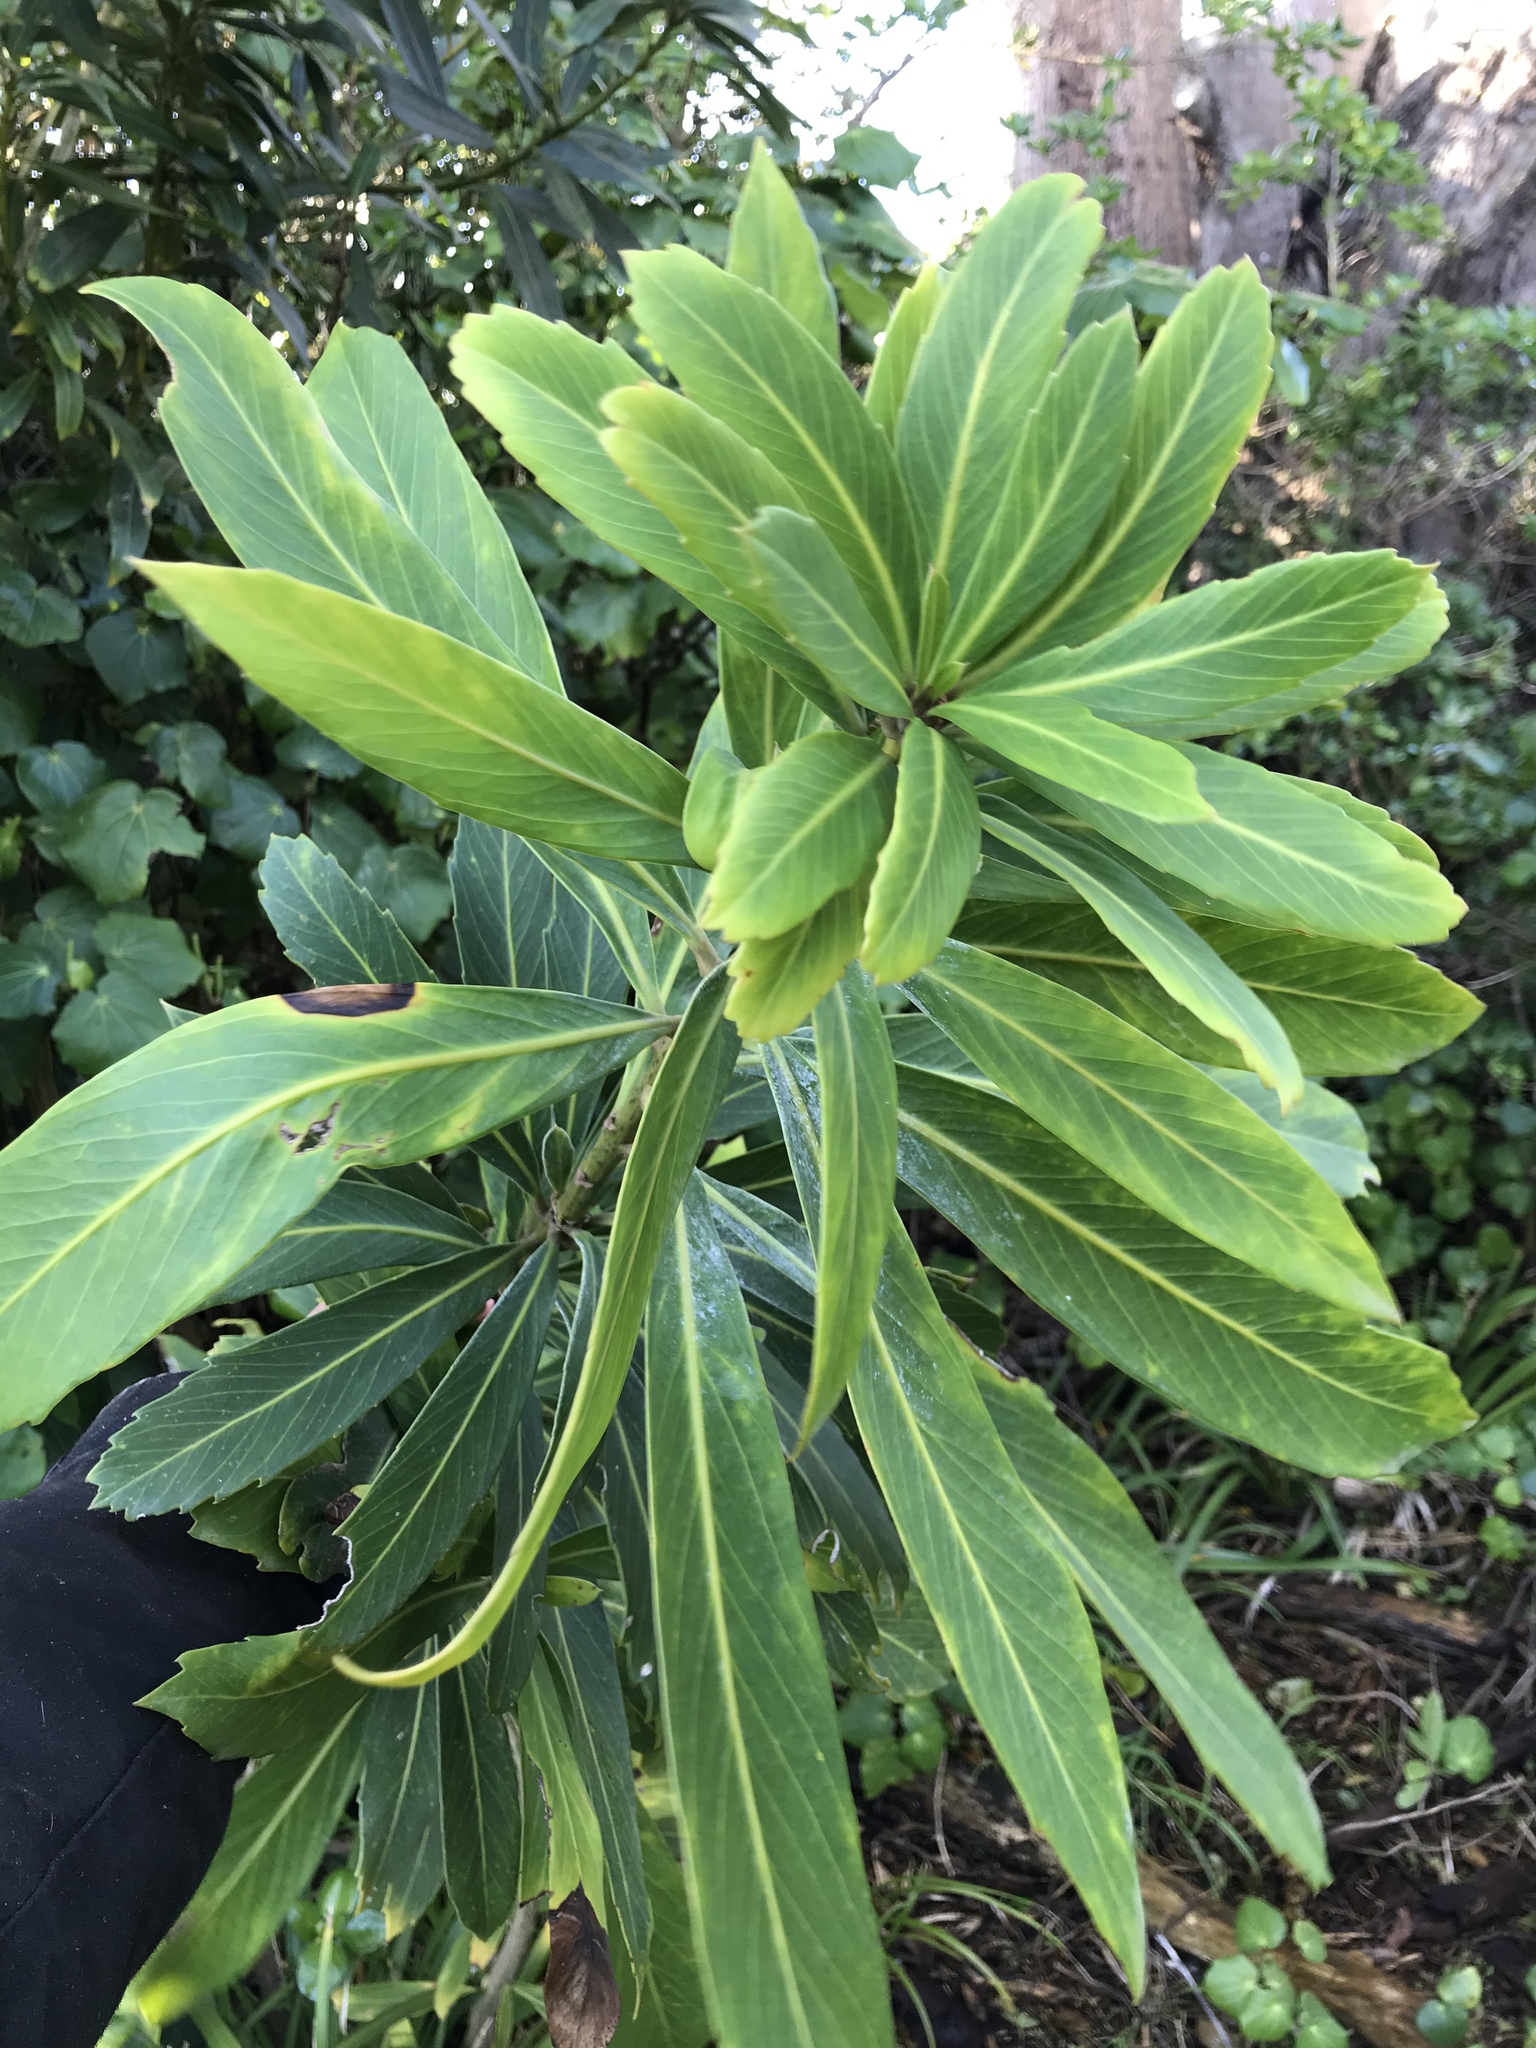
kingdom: Plantae
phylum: Tracheophyta
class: Magnoliopsida
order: Apiales
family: Araliaceae
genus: Pseudopanax
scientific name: Pseudopanax chathamicus
